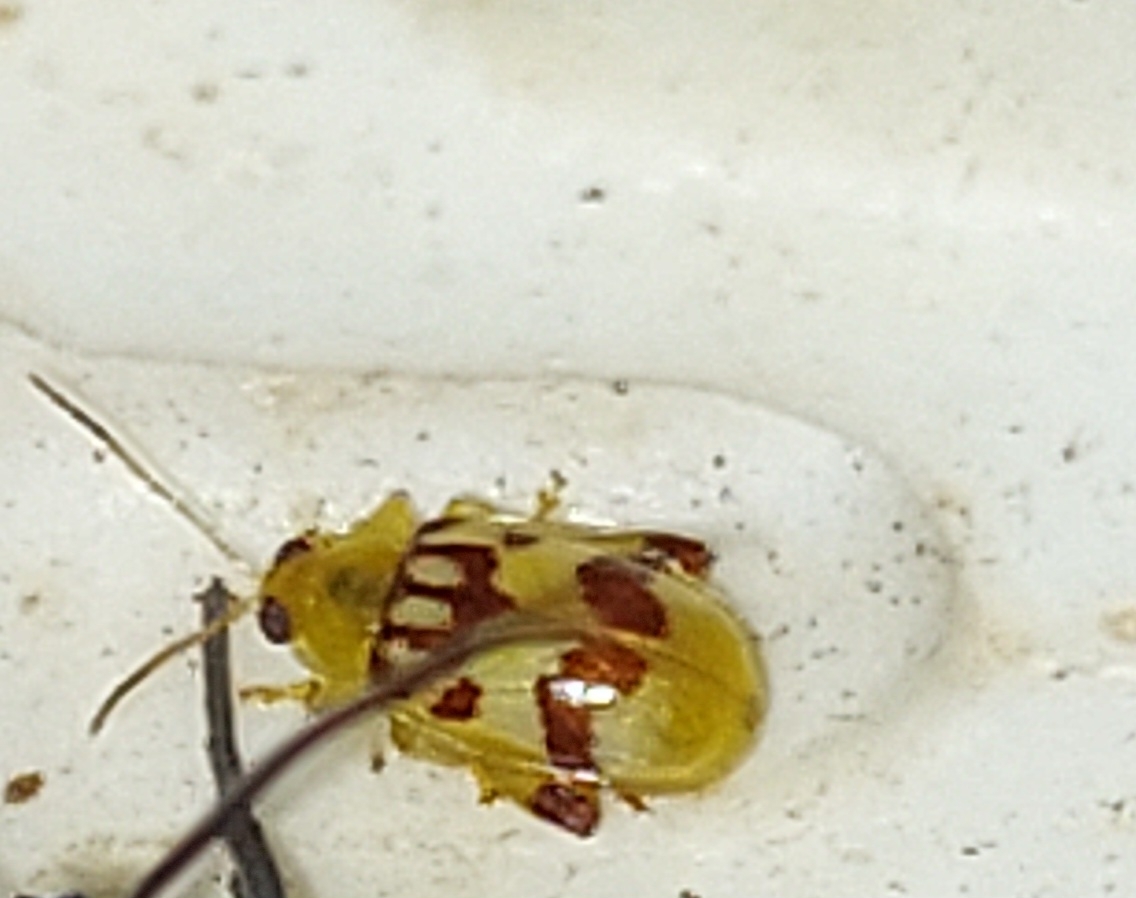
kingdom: Animalia
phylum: Arthropoda
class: Insecta
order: Coleoptera
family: Chrysomelidae
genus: Walterianella
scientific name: Walterianella
